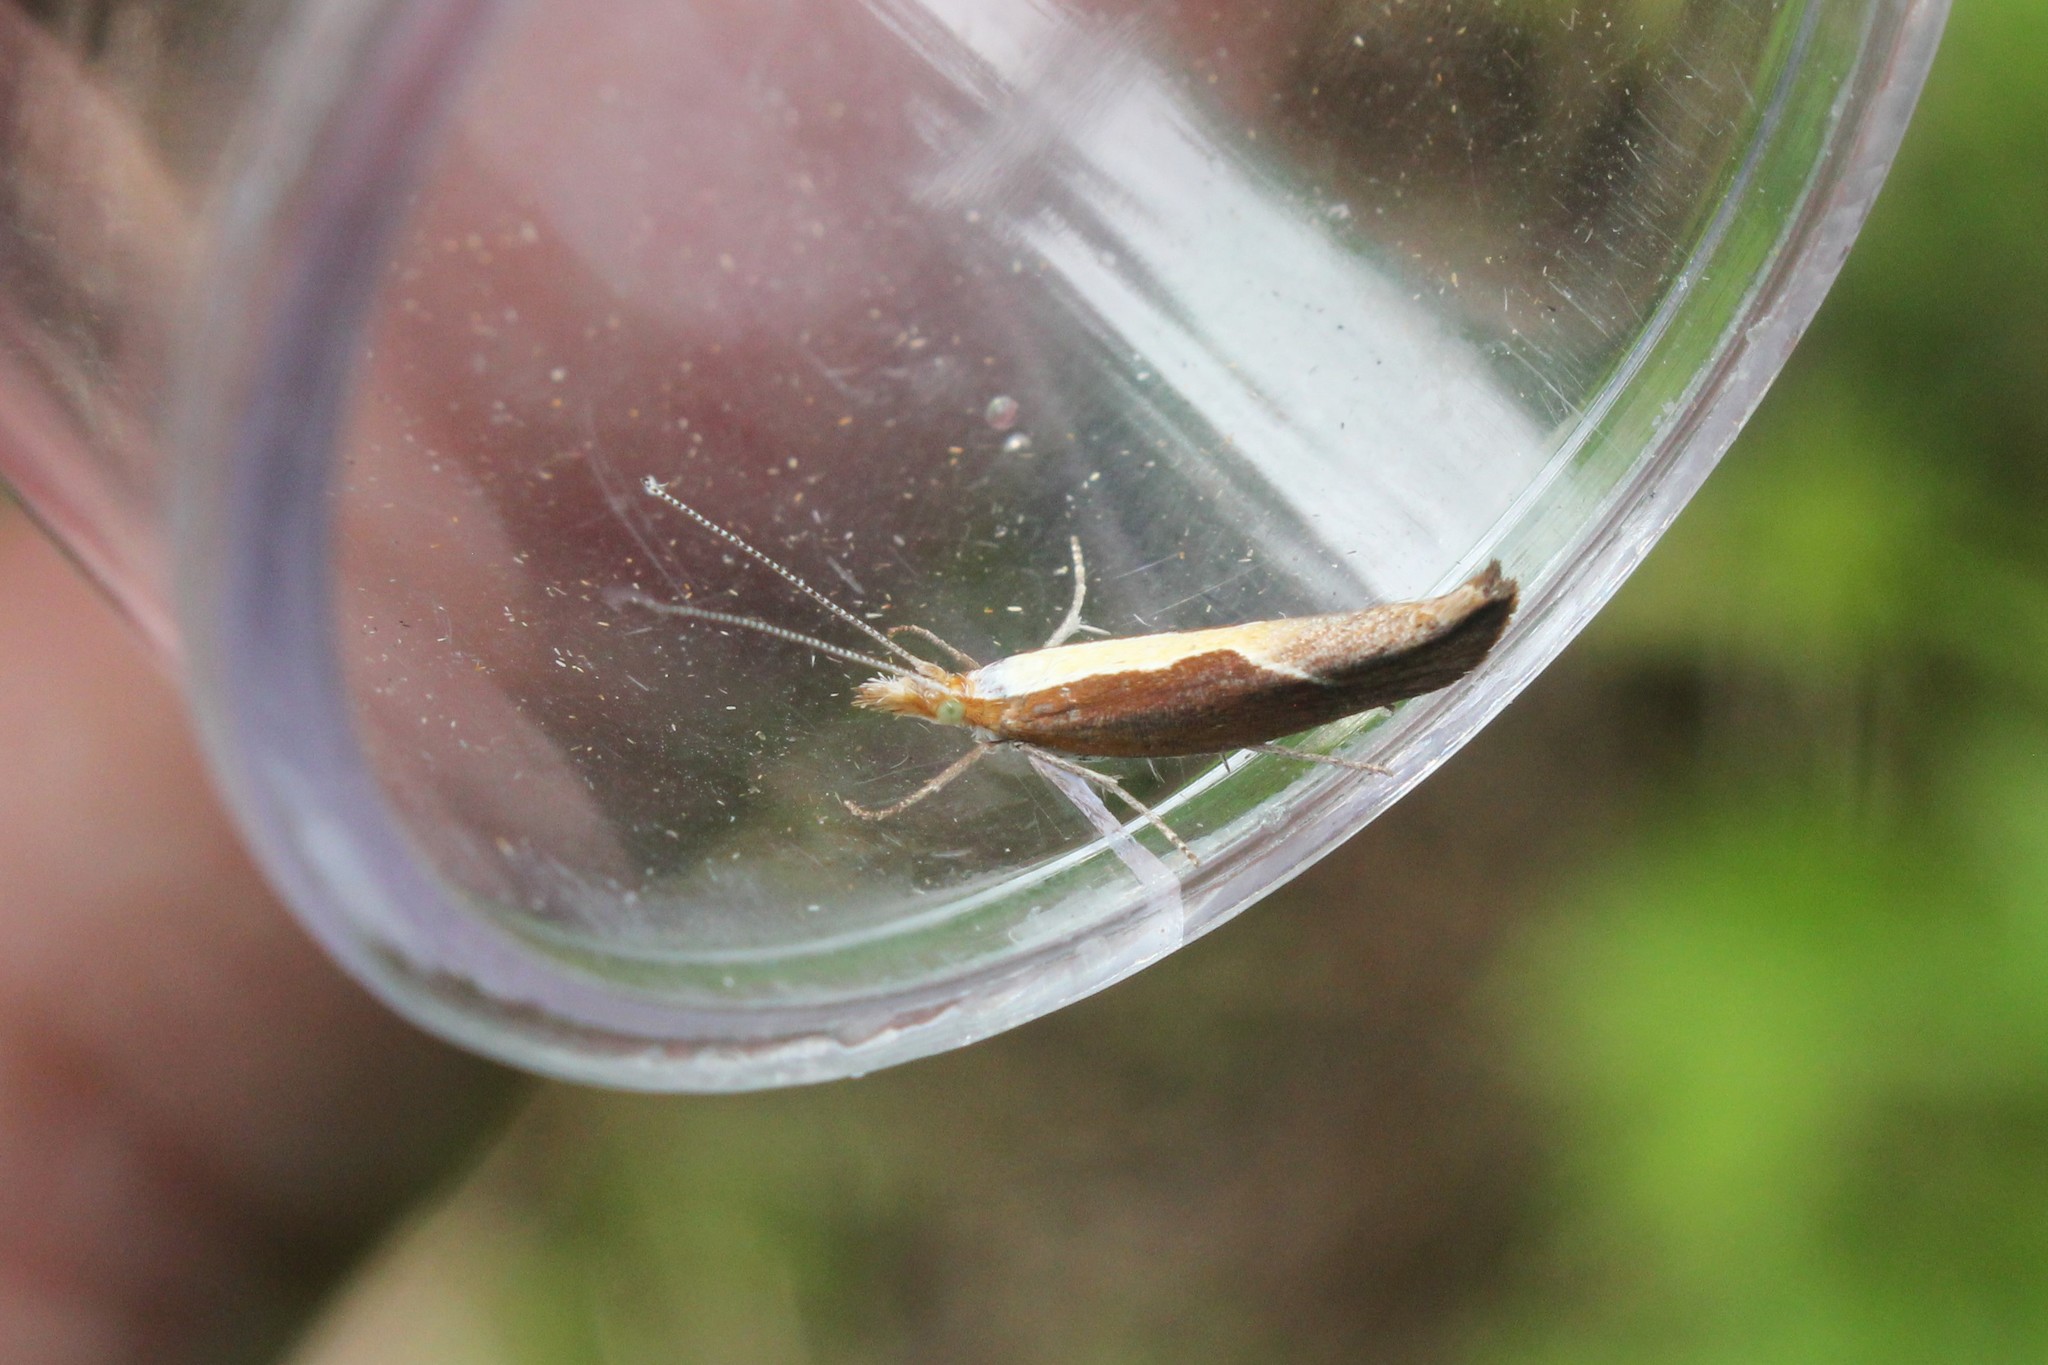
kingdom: Animalia
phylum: Arthropoda
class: Insecta
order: Lepidoptera
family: Ypsolophidae
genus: Ypsolopha
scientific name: Ypsolopha dentella
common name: Honeysuckle moth
